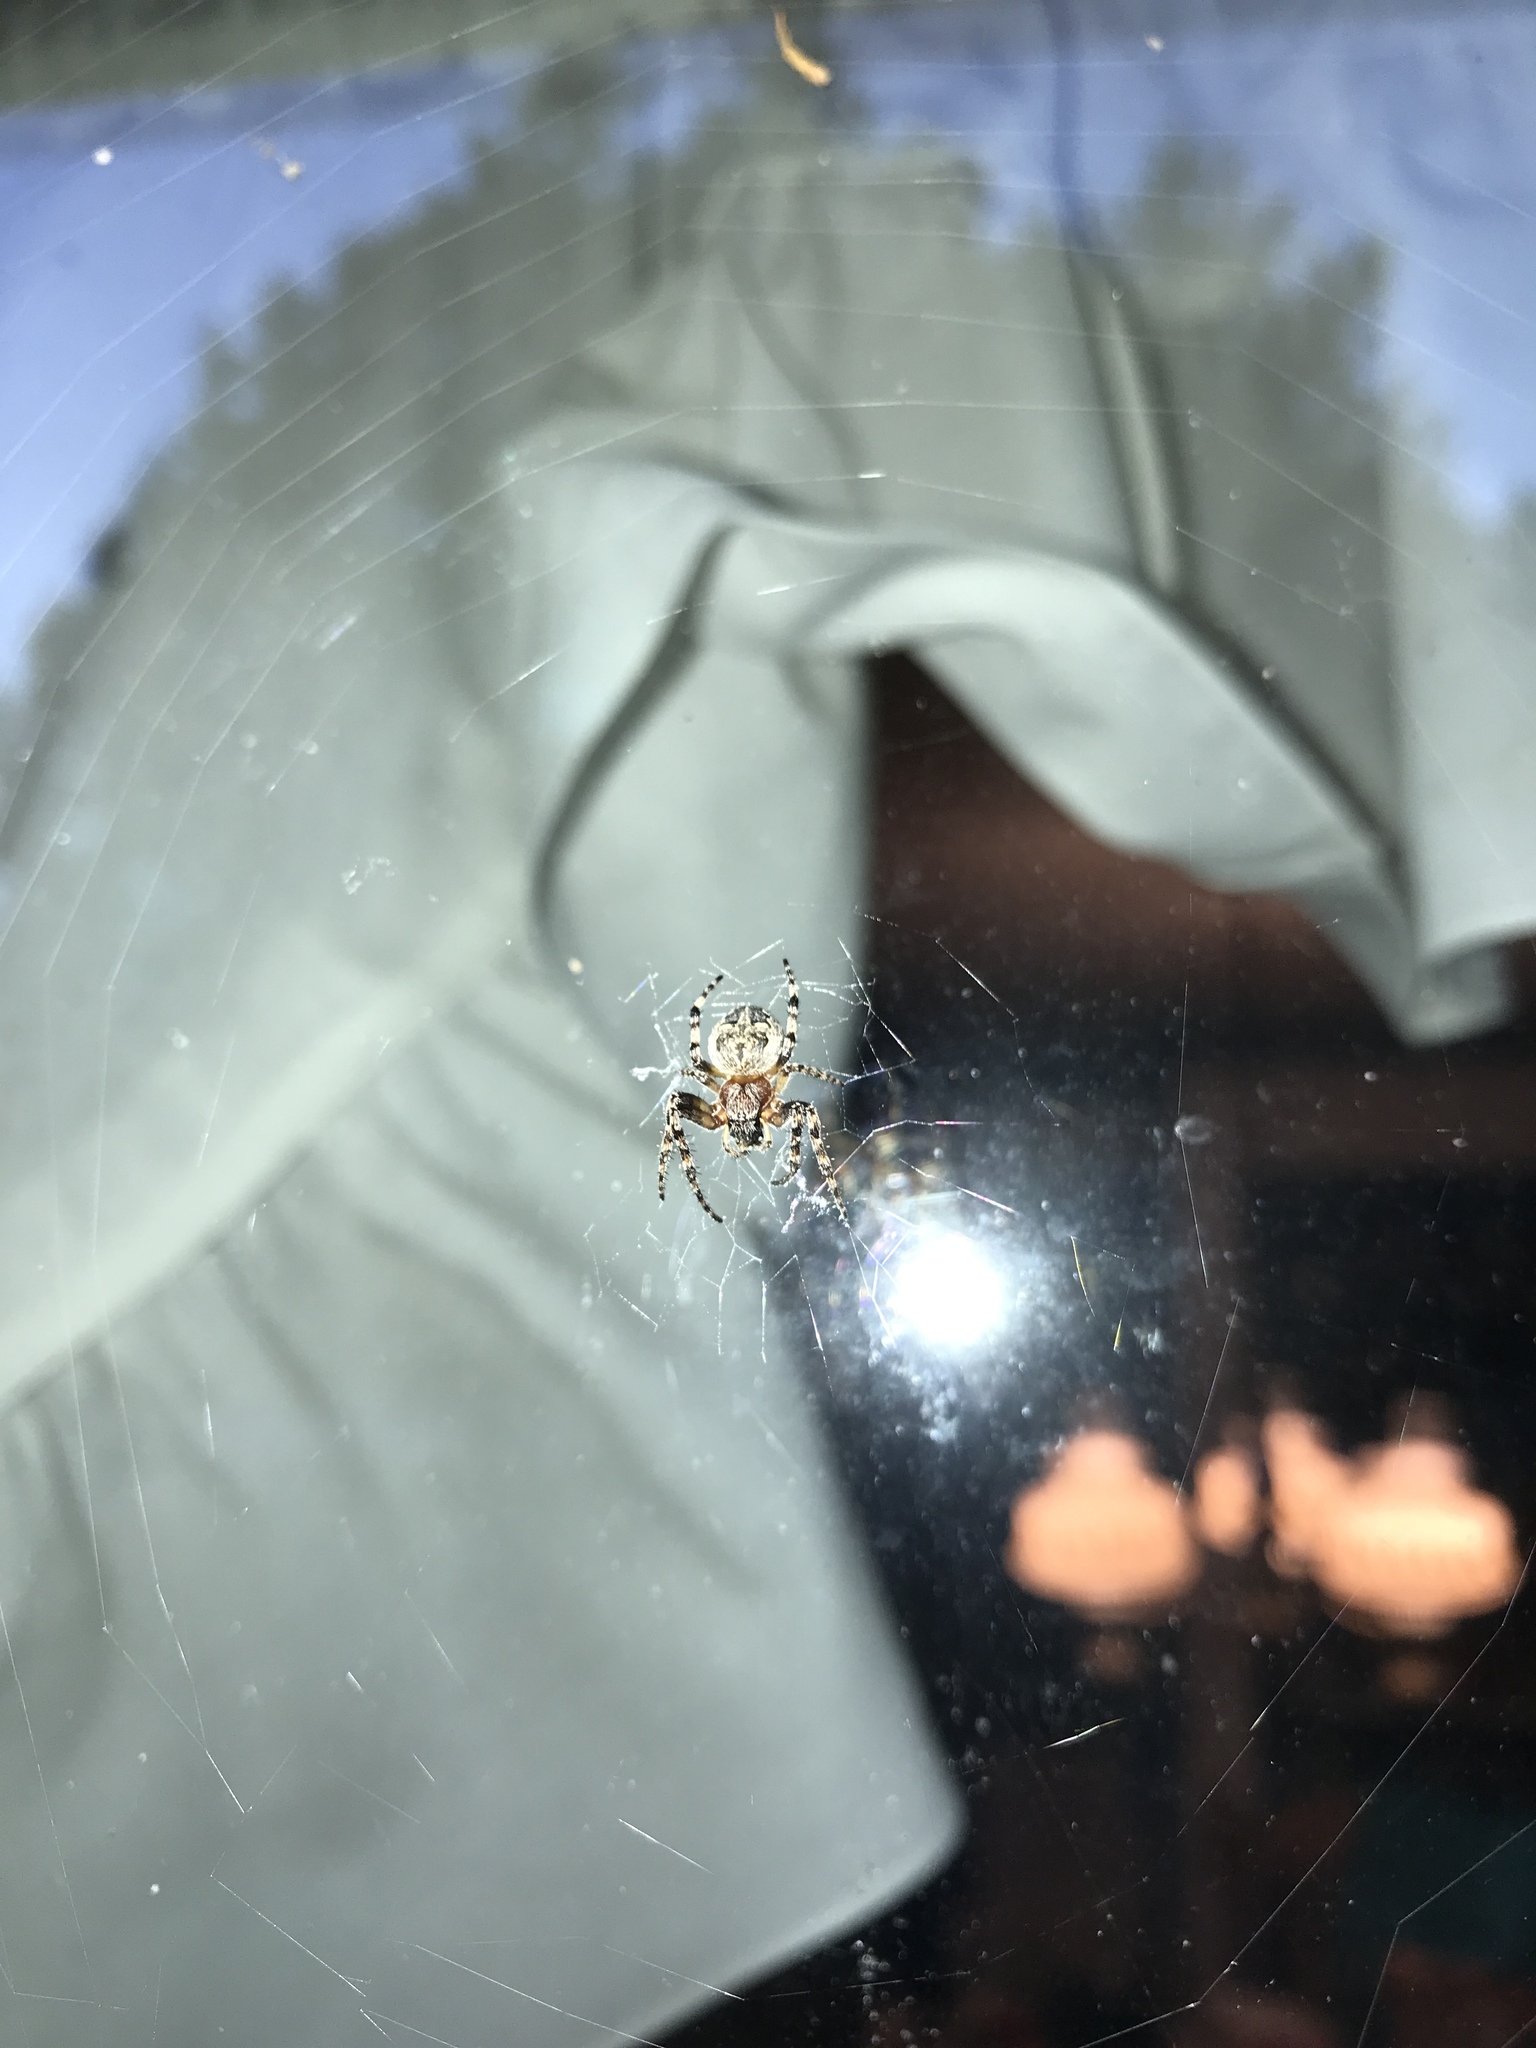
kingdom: Animalia
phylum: Arthropoda
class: Arachnida
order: Araneae
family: Araneidae
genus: Larinioides
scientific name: Larinioides sclopetarius
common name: Bridge orbweaver
